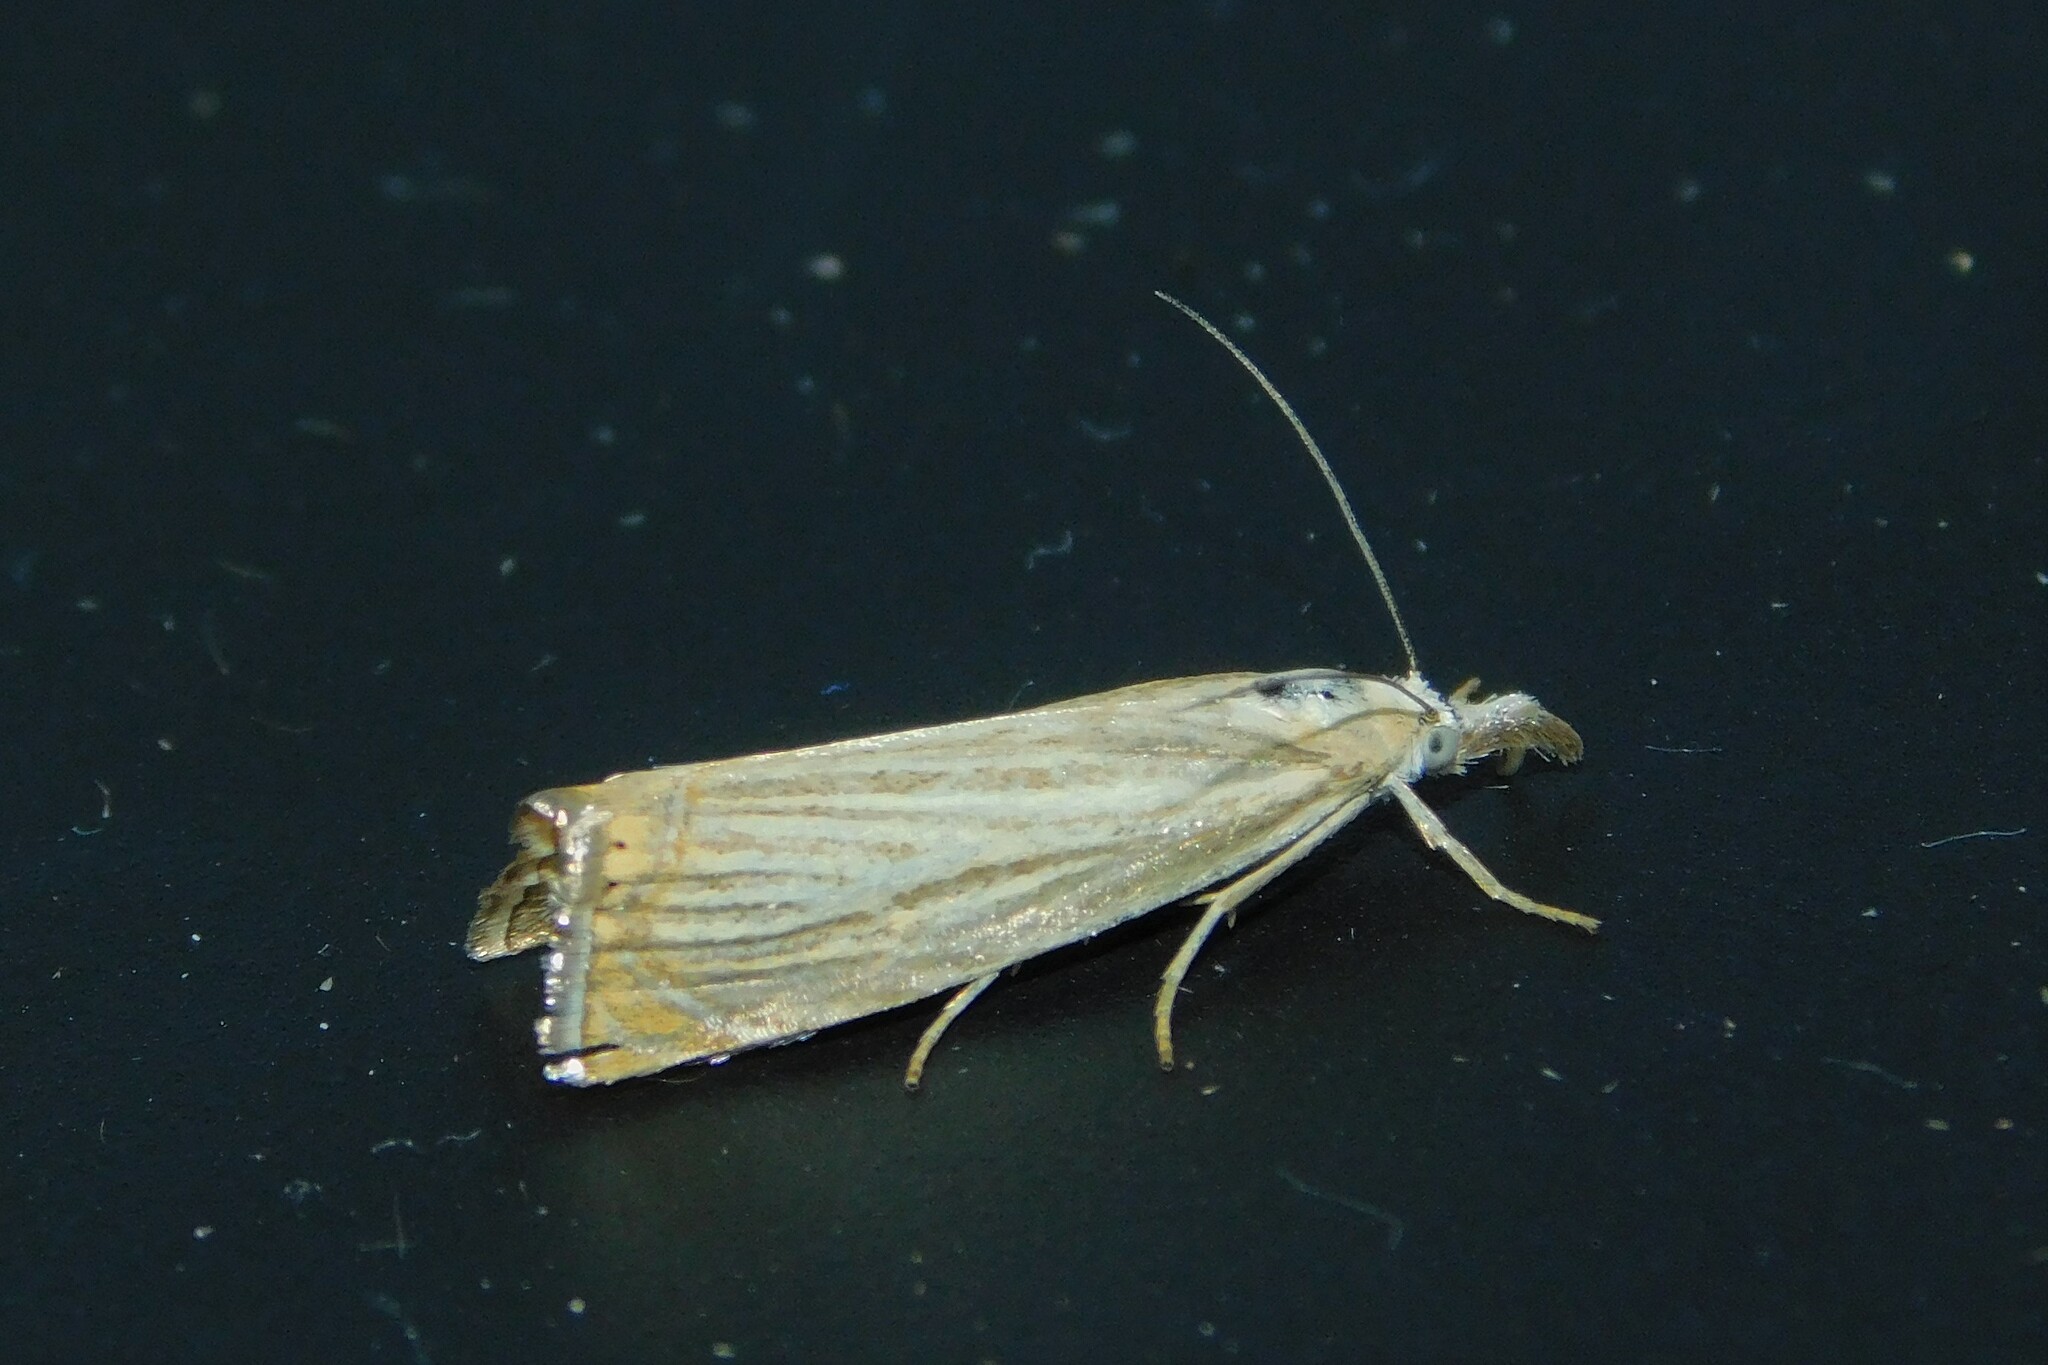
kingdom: Animalia
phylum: Arthropoda
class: Insecta
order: Lepidoptera
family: Crambidae
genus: Chrysoteuchia
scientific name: Chrysoteuchia culmella
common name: Garden grass-veneer
